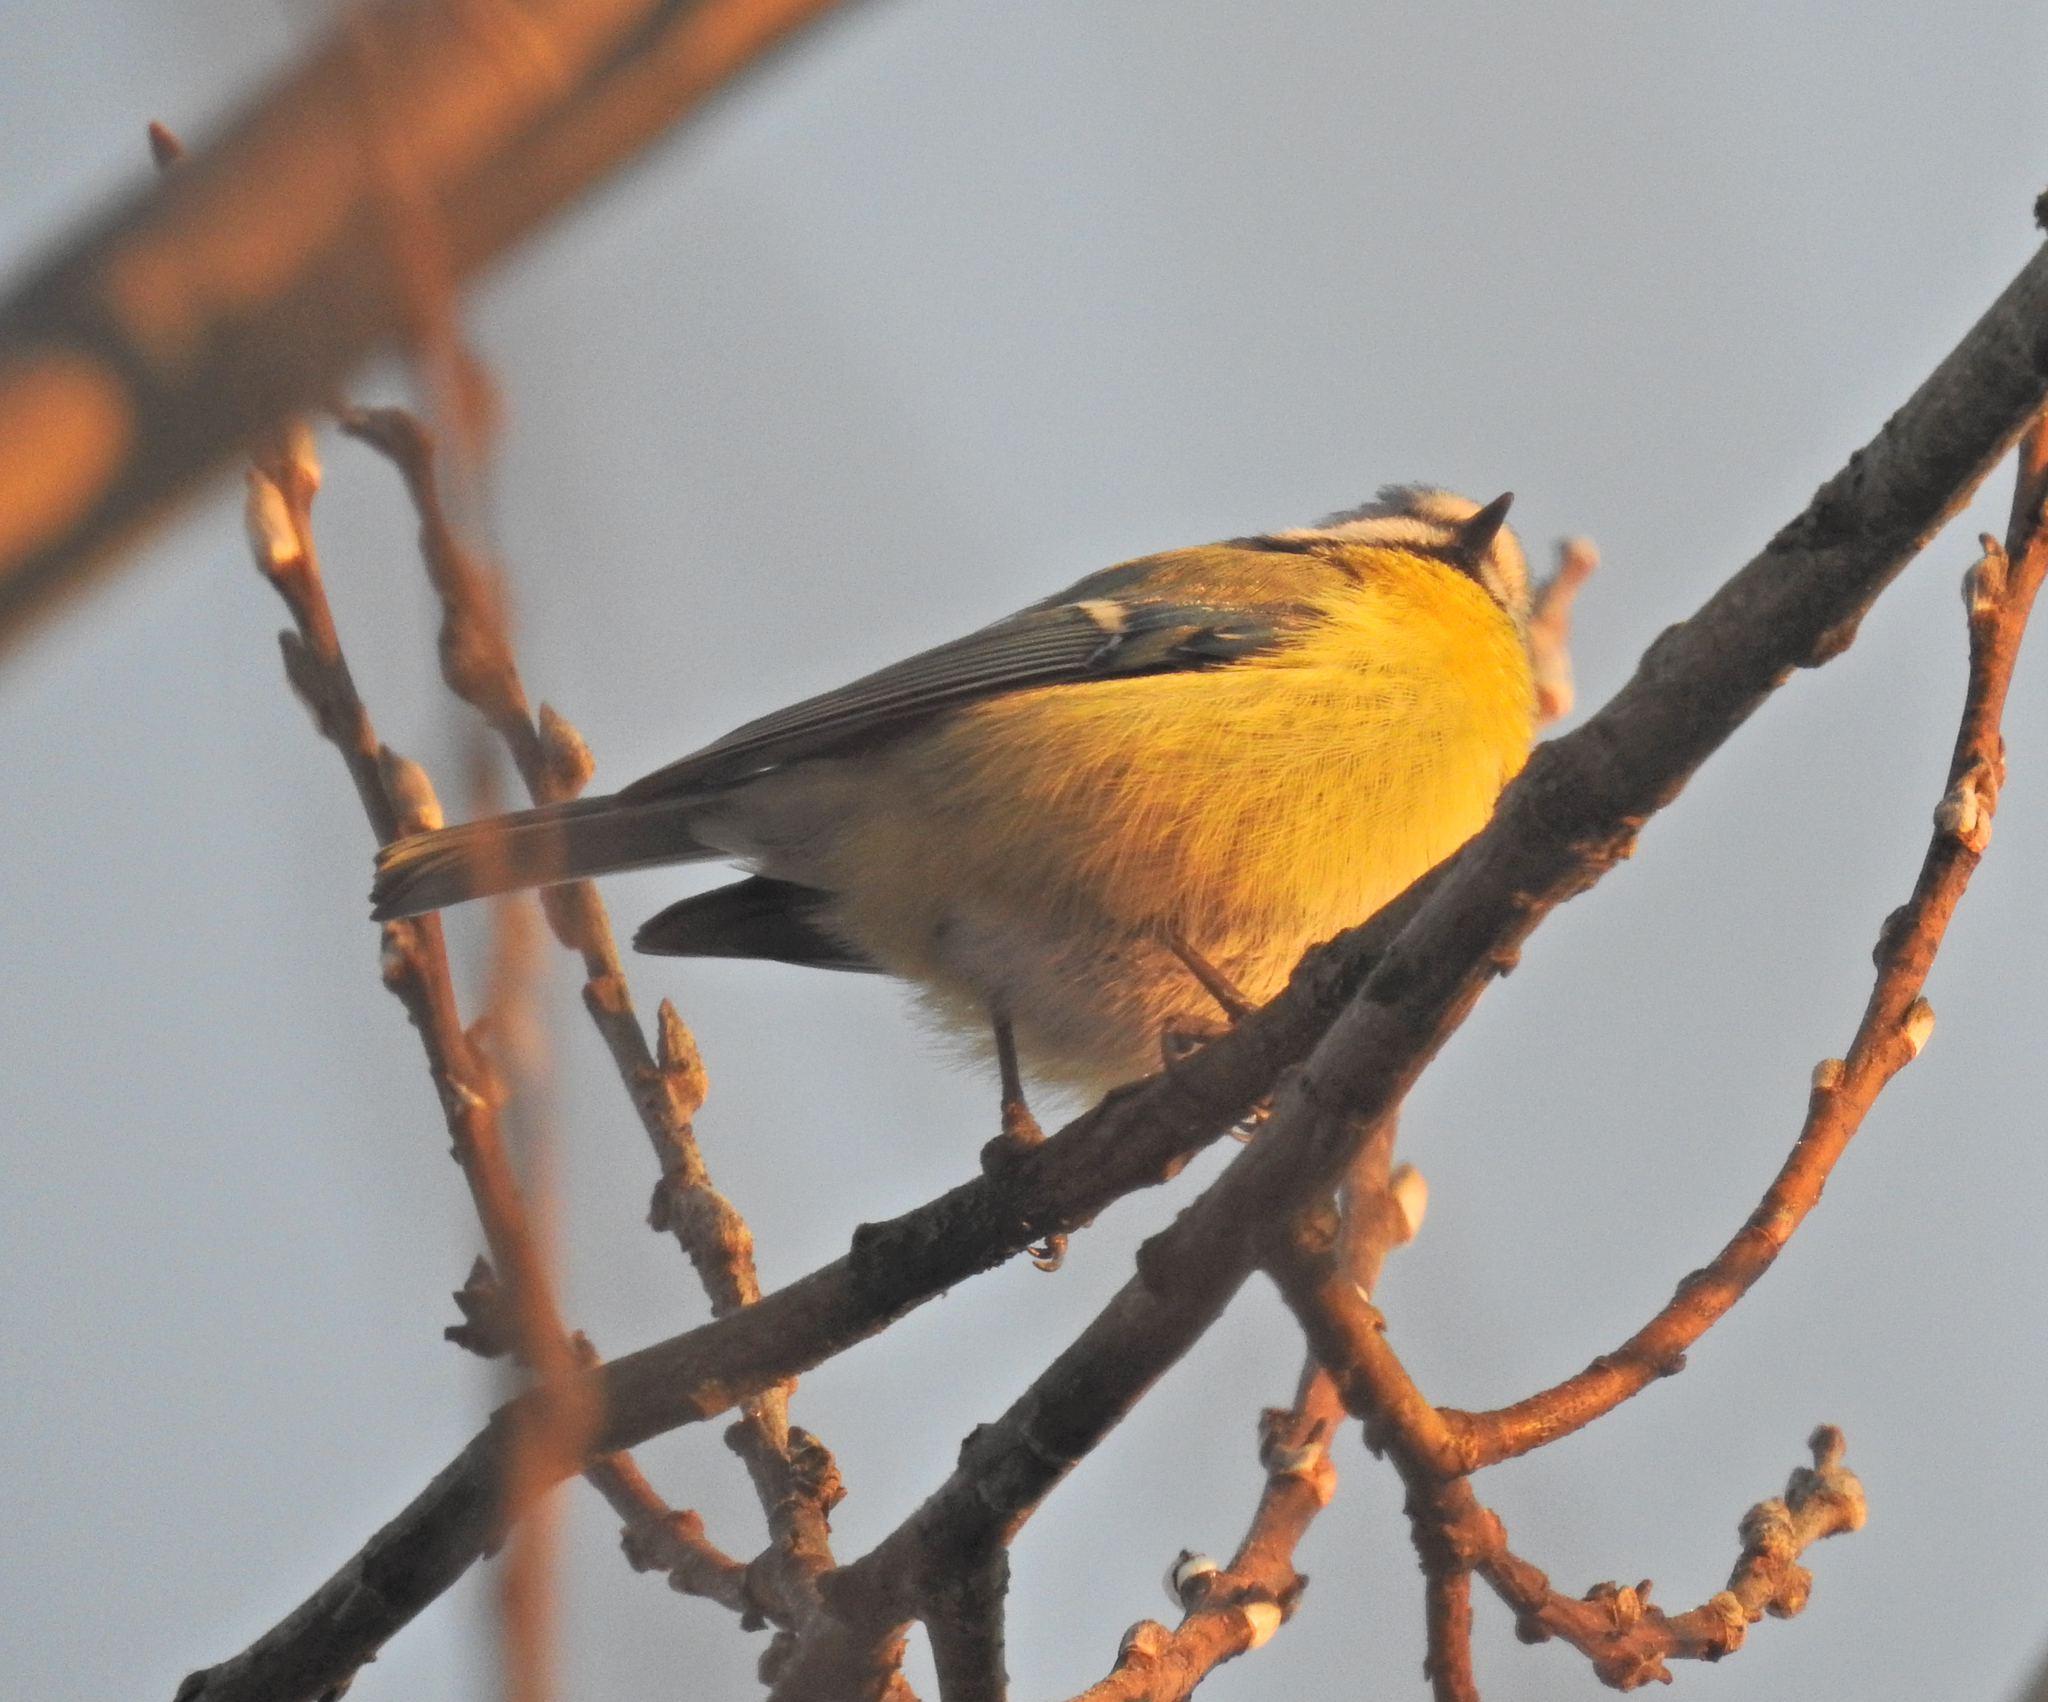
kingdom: Animalia
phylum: Chordata
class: Aves
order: Passeriformes
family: Paridae
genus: Cyanistes
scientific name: Cyanistes caeruleus
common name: Eurasian blue tit
